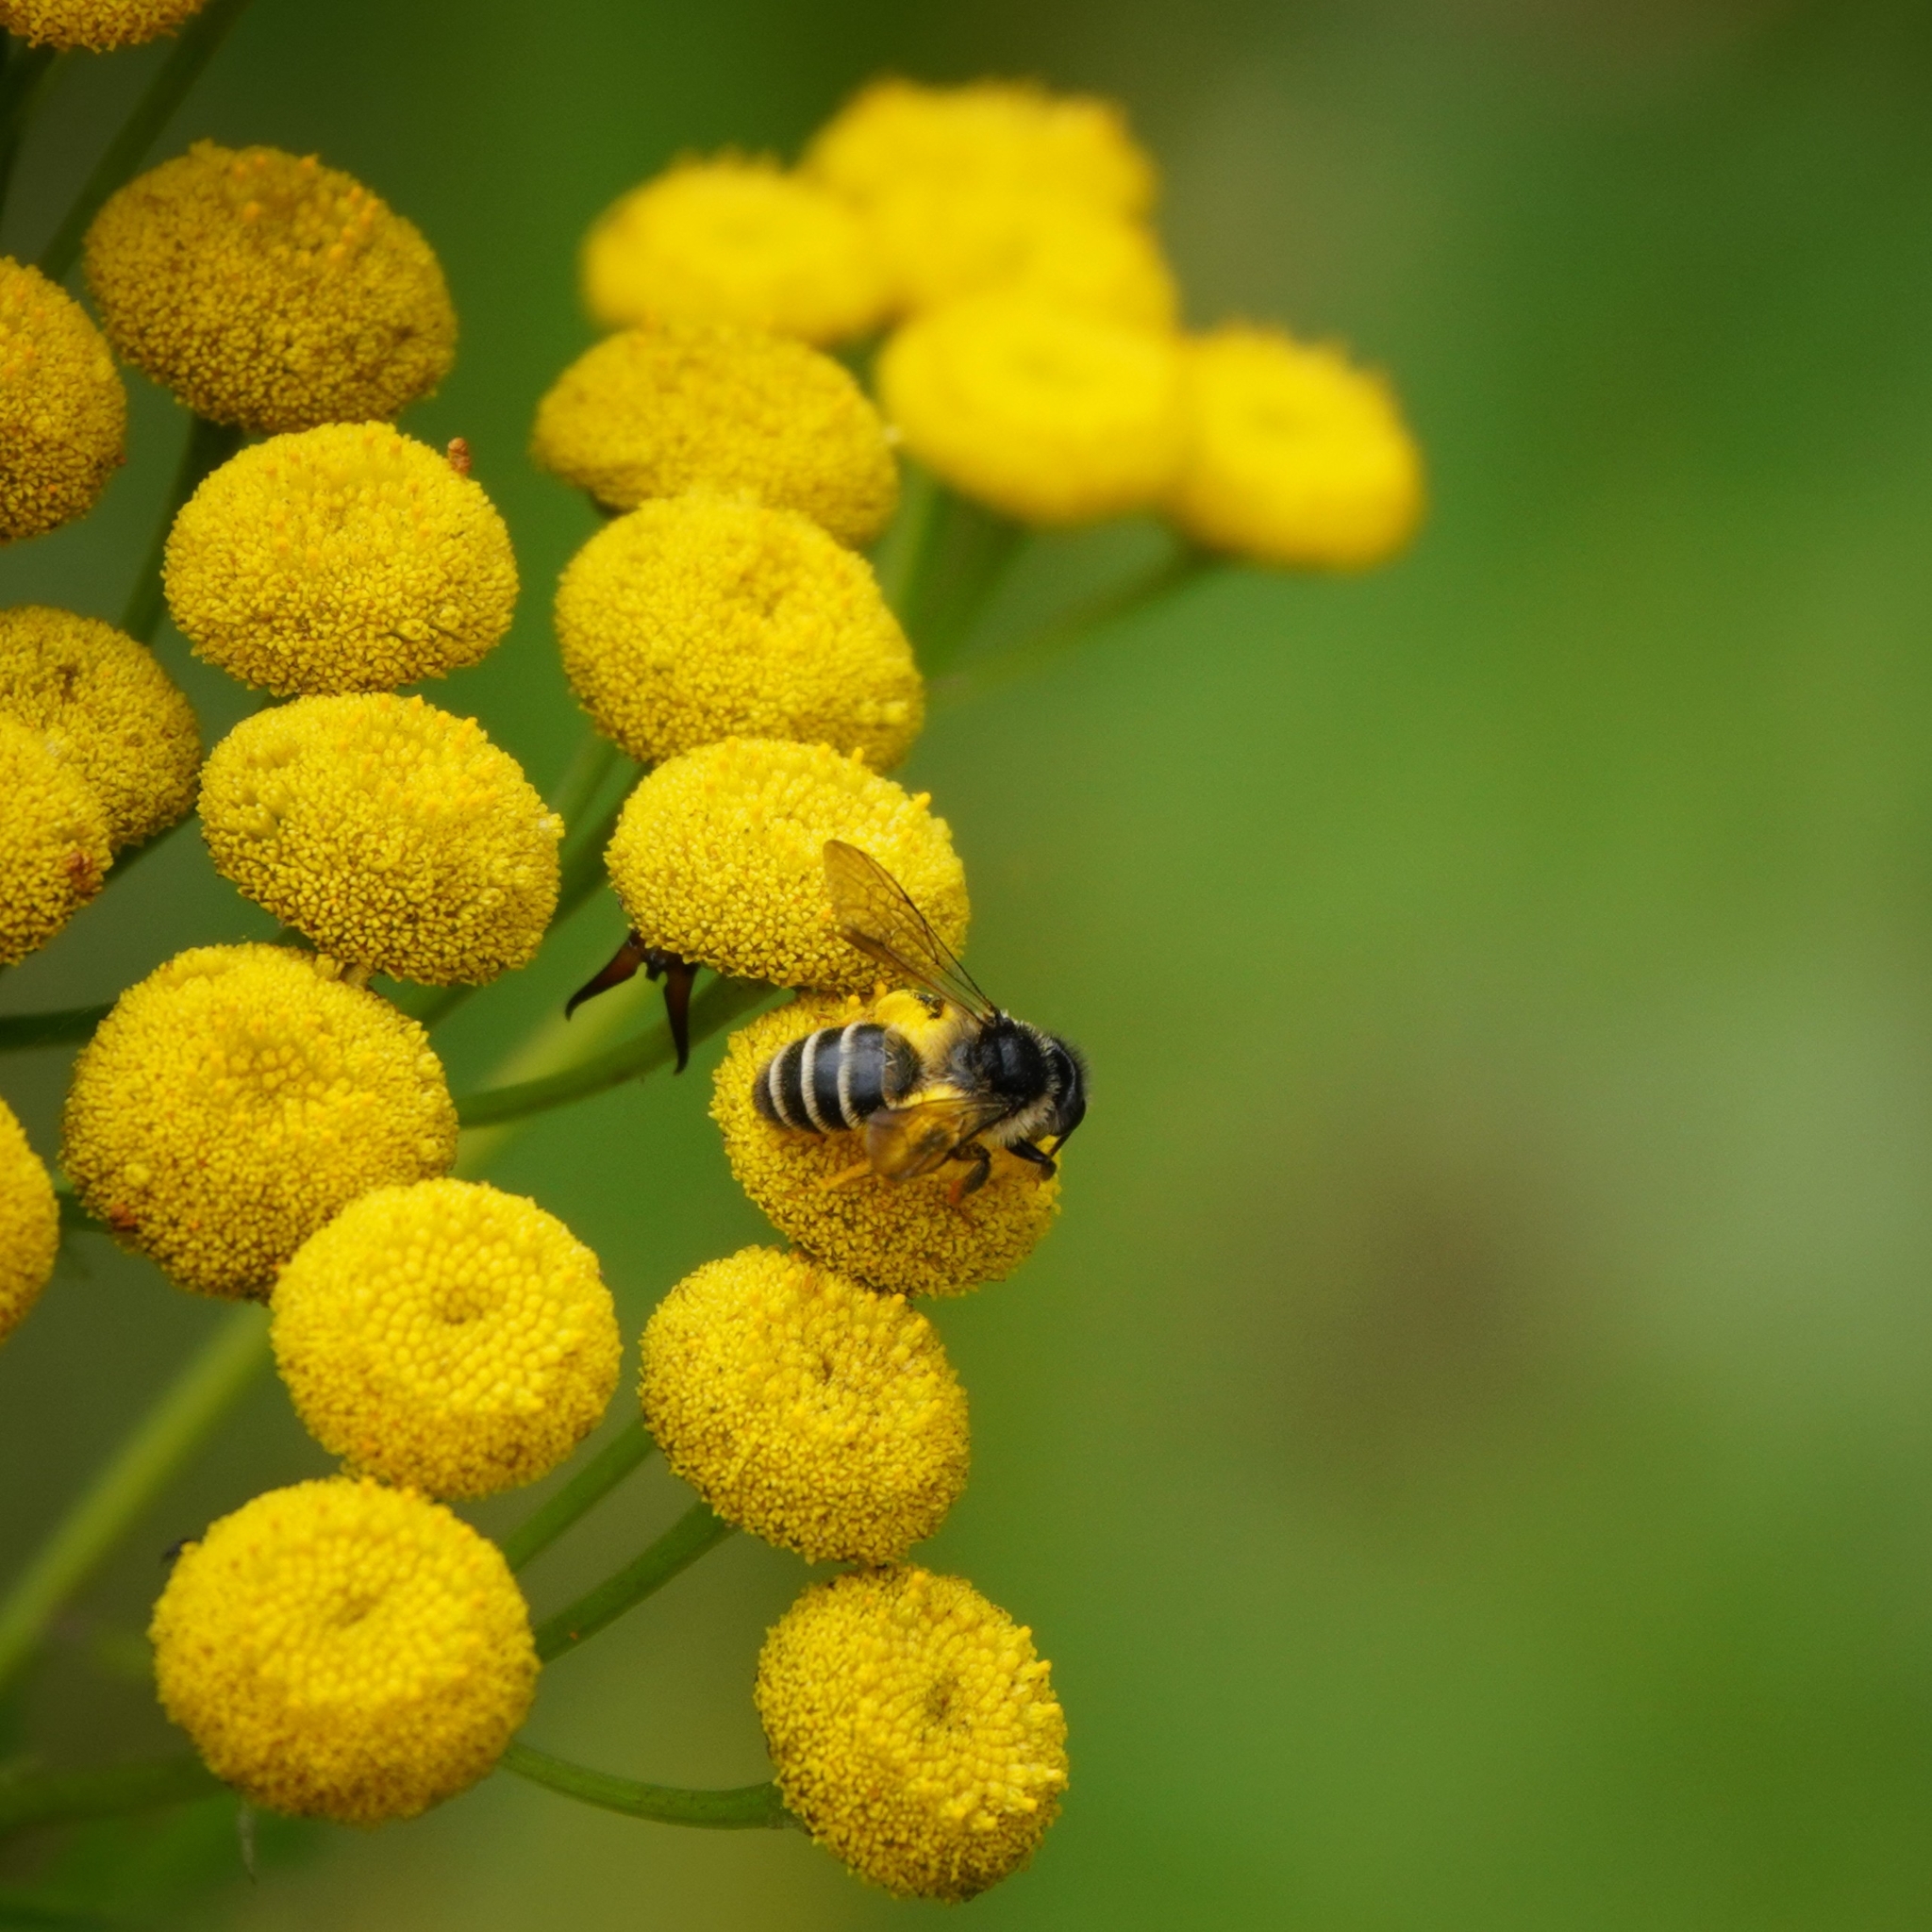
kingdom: Animalia
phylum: Arthropoda
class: Insecta
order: Hymenoptera
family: Andrenidae
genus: Andrena
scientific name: Andrena denticulata
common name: Grey-banded mining bee
